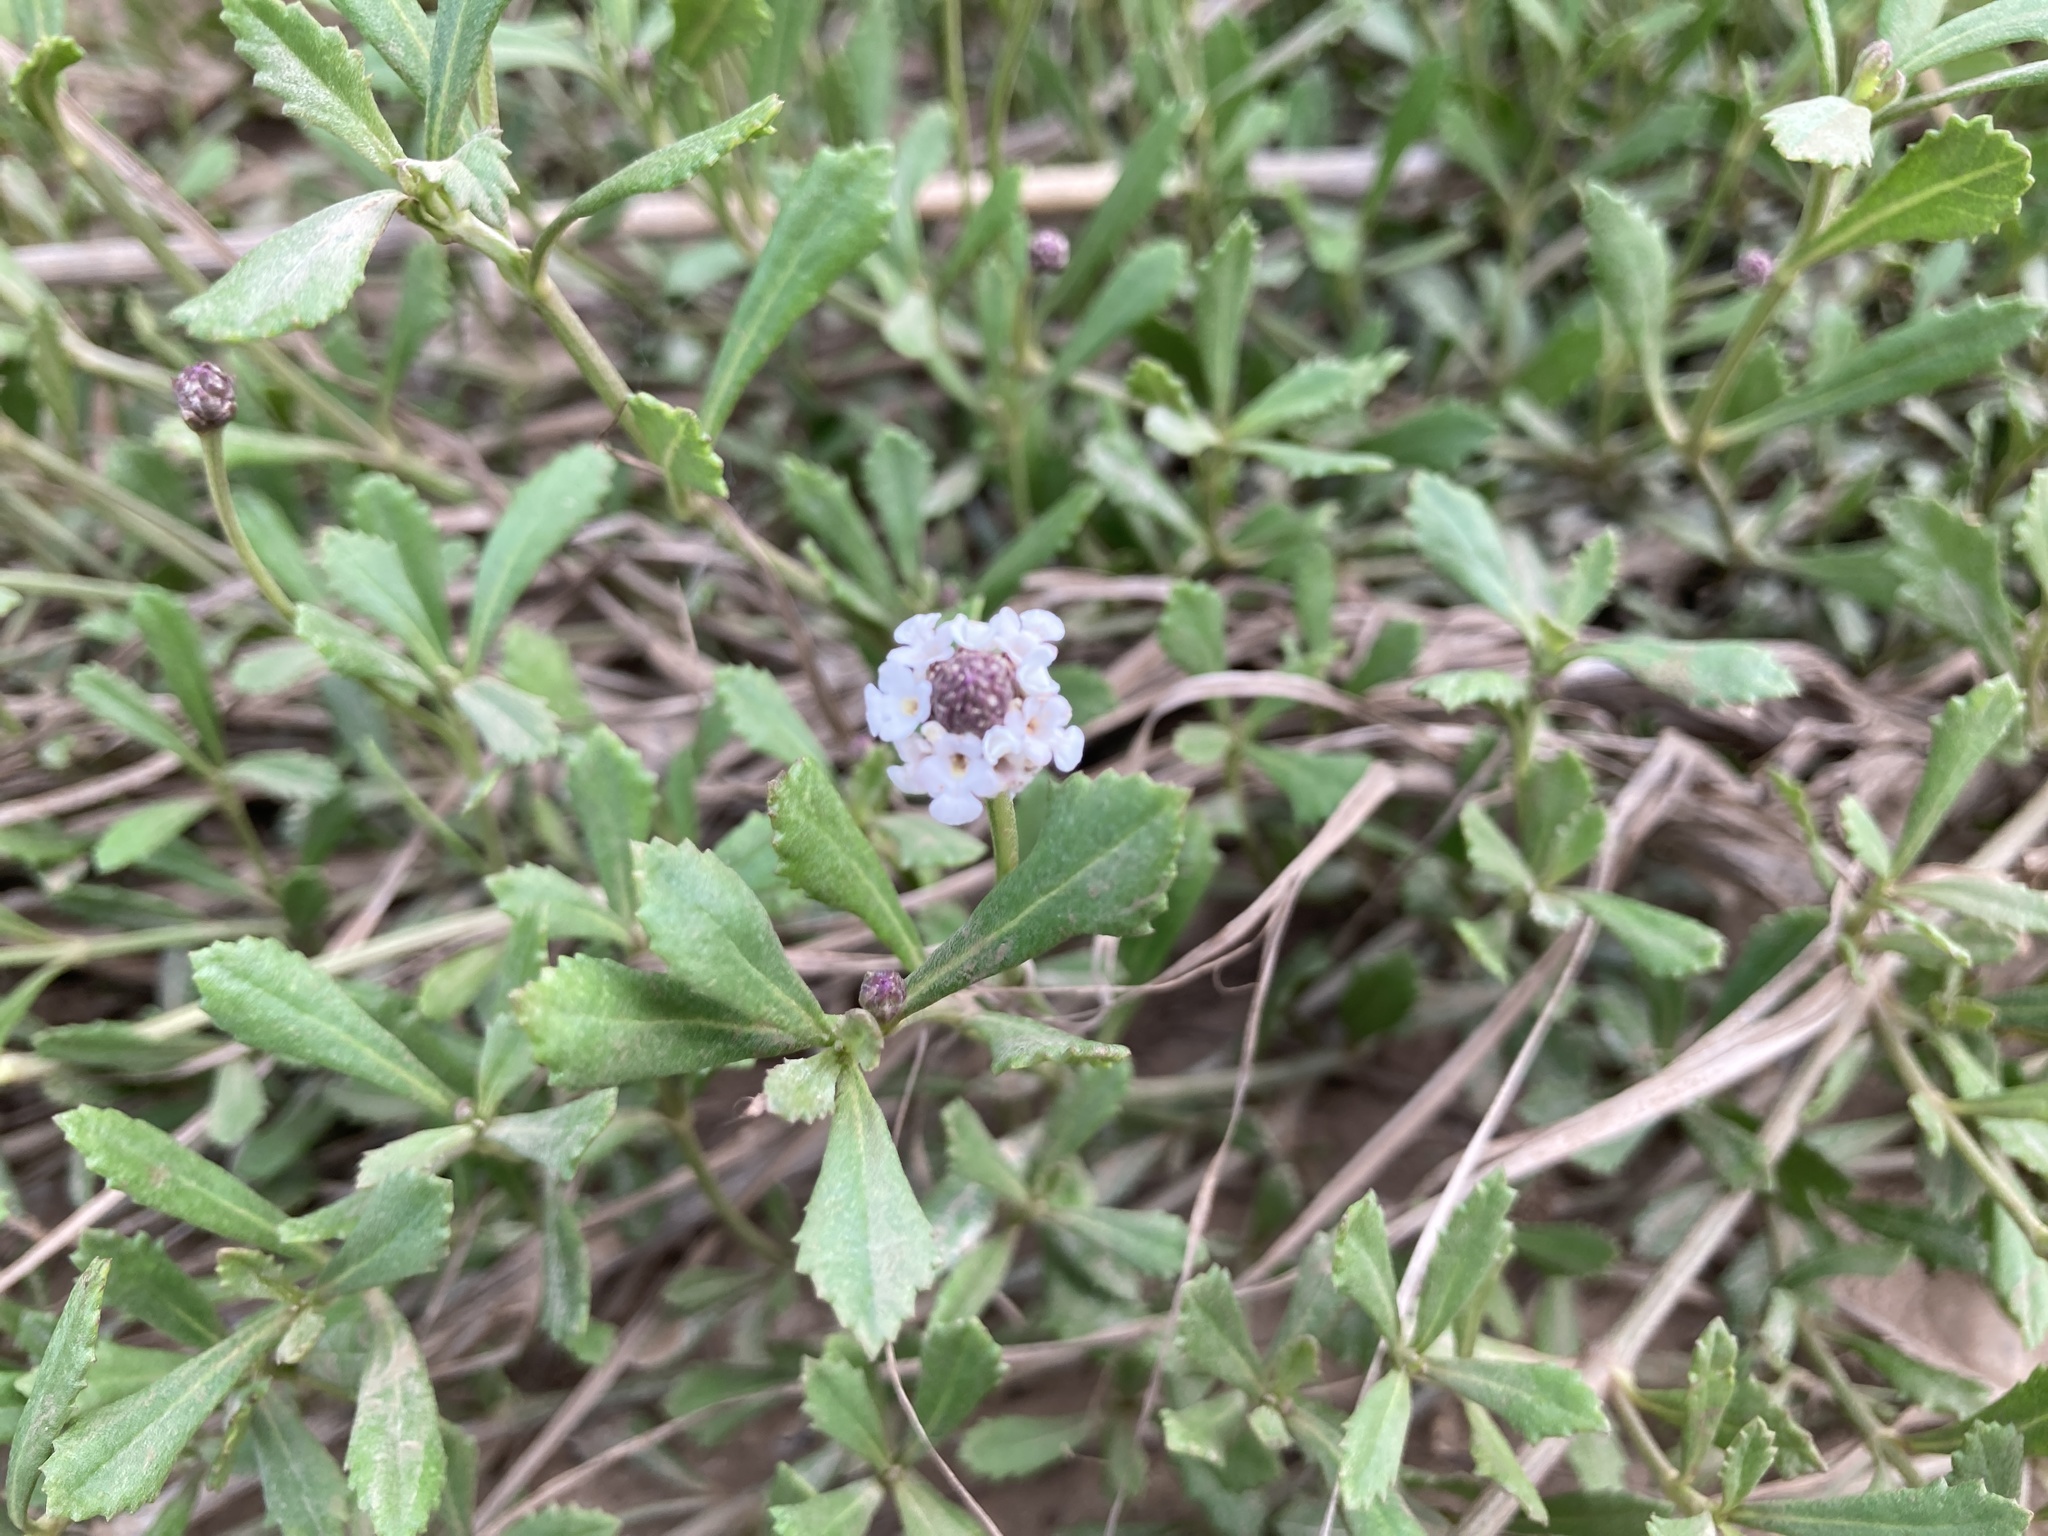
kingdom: Plantae
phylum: Tracheophyta
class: Magnoliopsida
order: Lamiales
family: Verbenaceae
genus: Phyla
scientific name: Phyla nodiflora
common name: Frogfruit
